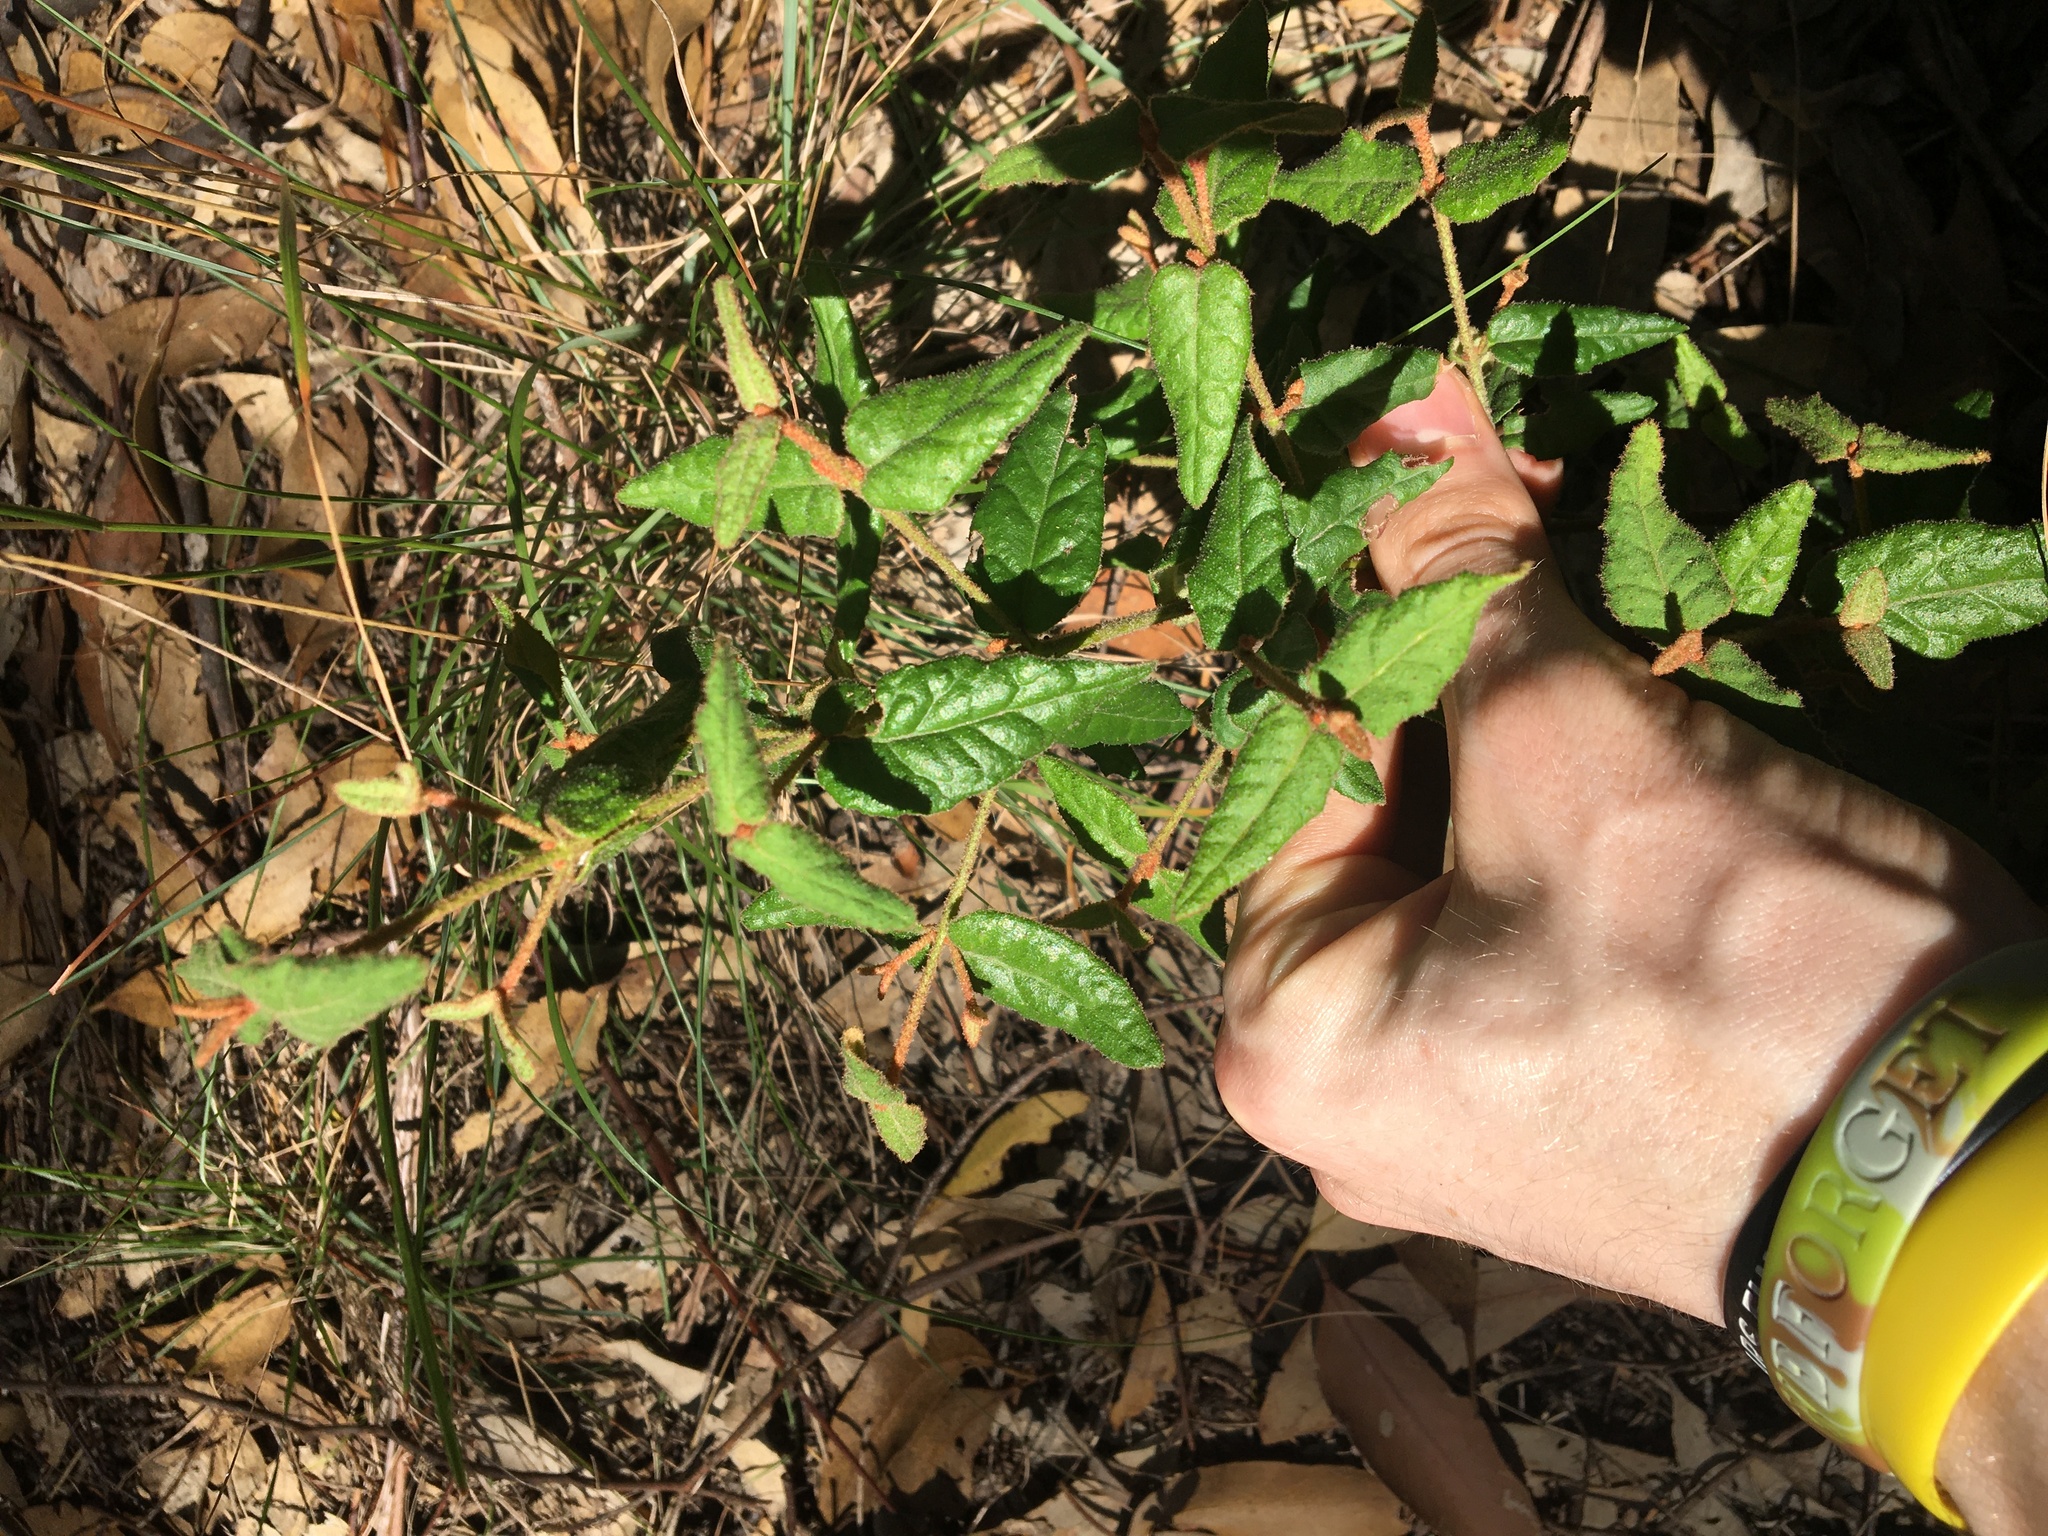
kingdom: Plantae
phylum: Tracheophyta
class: Magnoliopsida
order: Sapindales
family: Rutaceae
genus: Correa
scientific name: Correa reflexa
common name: Common correa
